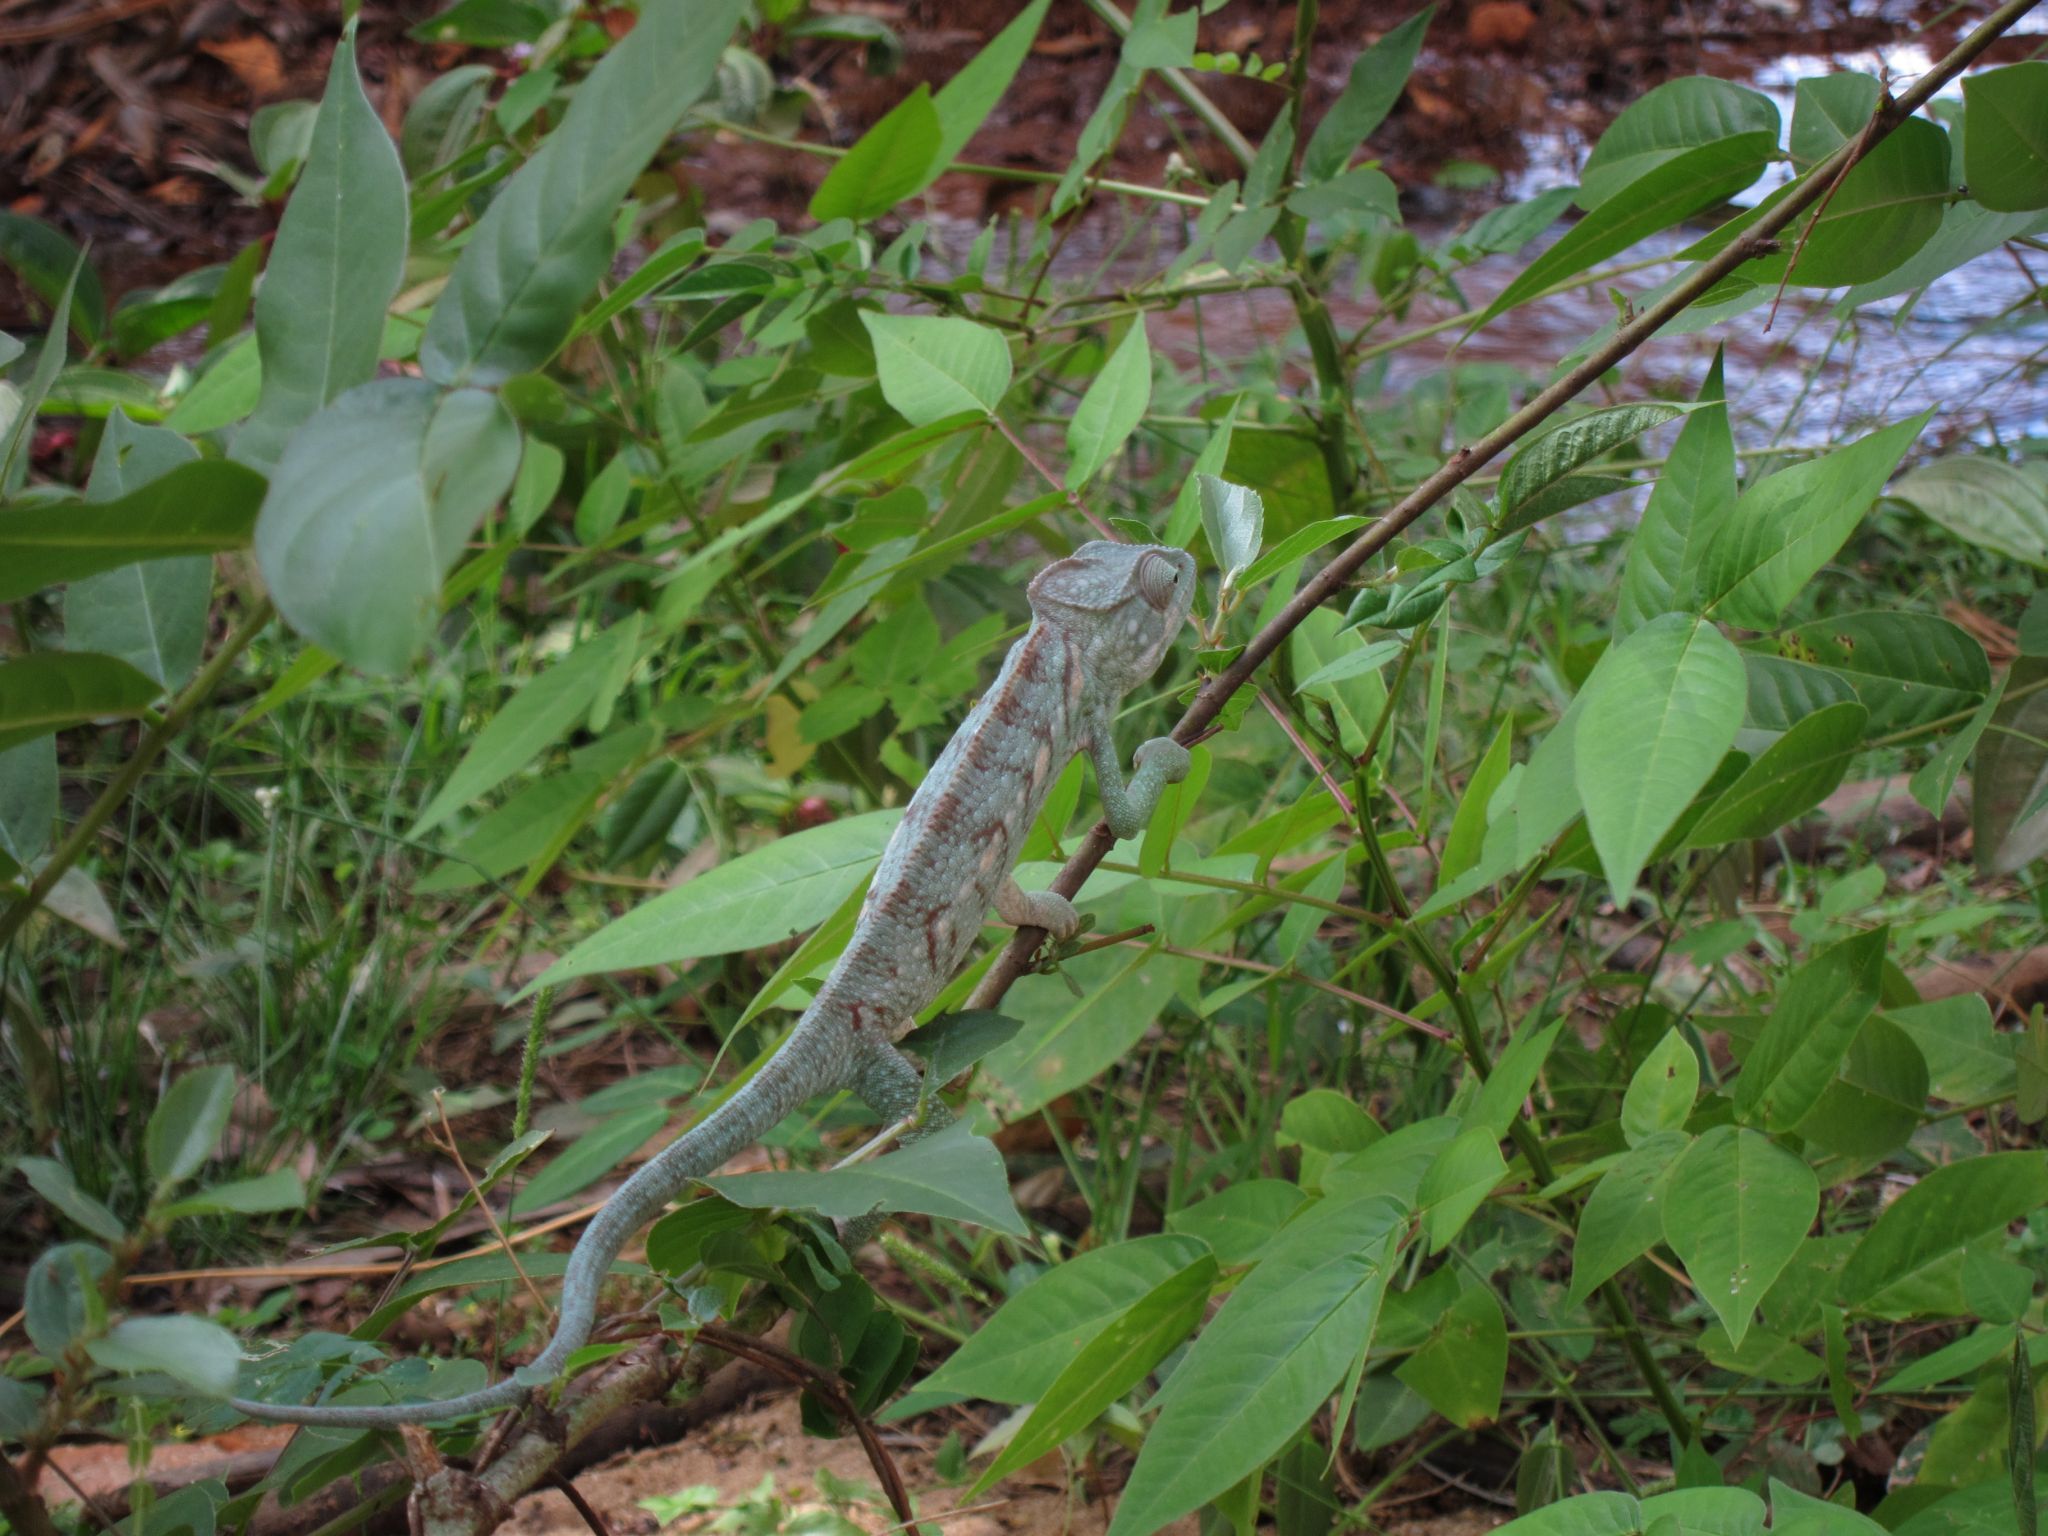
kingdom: Animalia
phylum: Chordata
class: Squamata
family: Chamaeleonidae
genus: Furcifer
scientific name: Furcifer oustaleti
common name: Oustalet's chameleon
